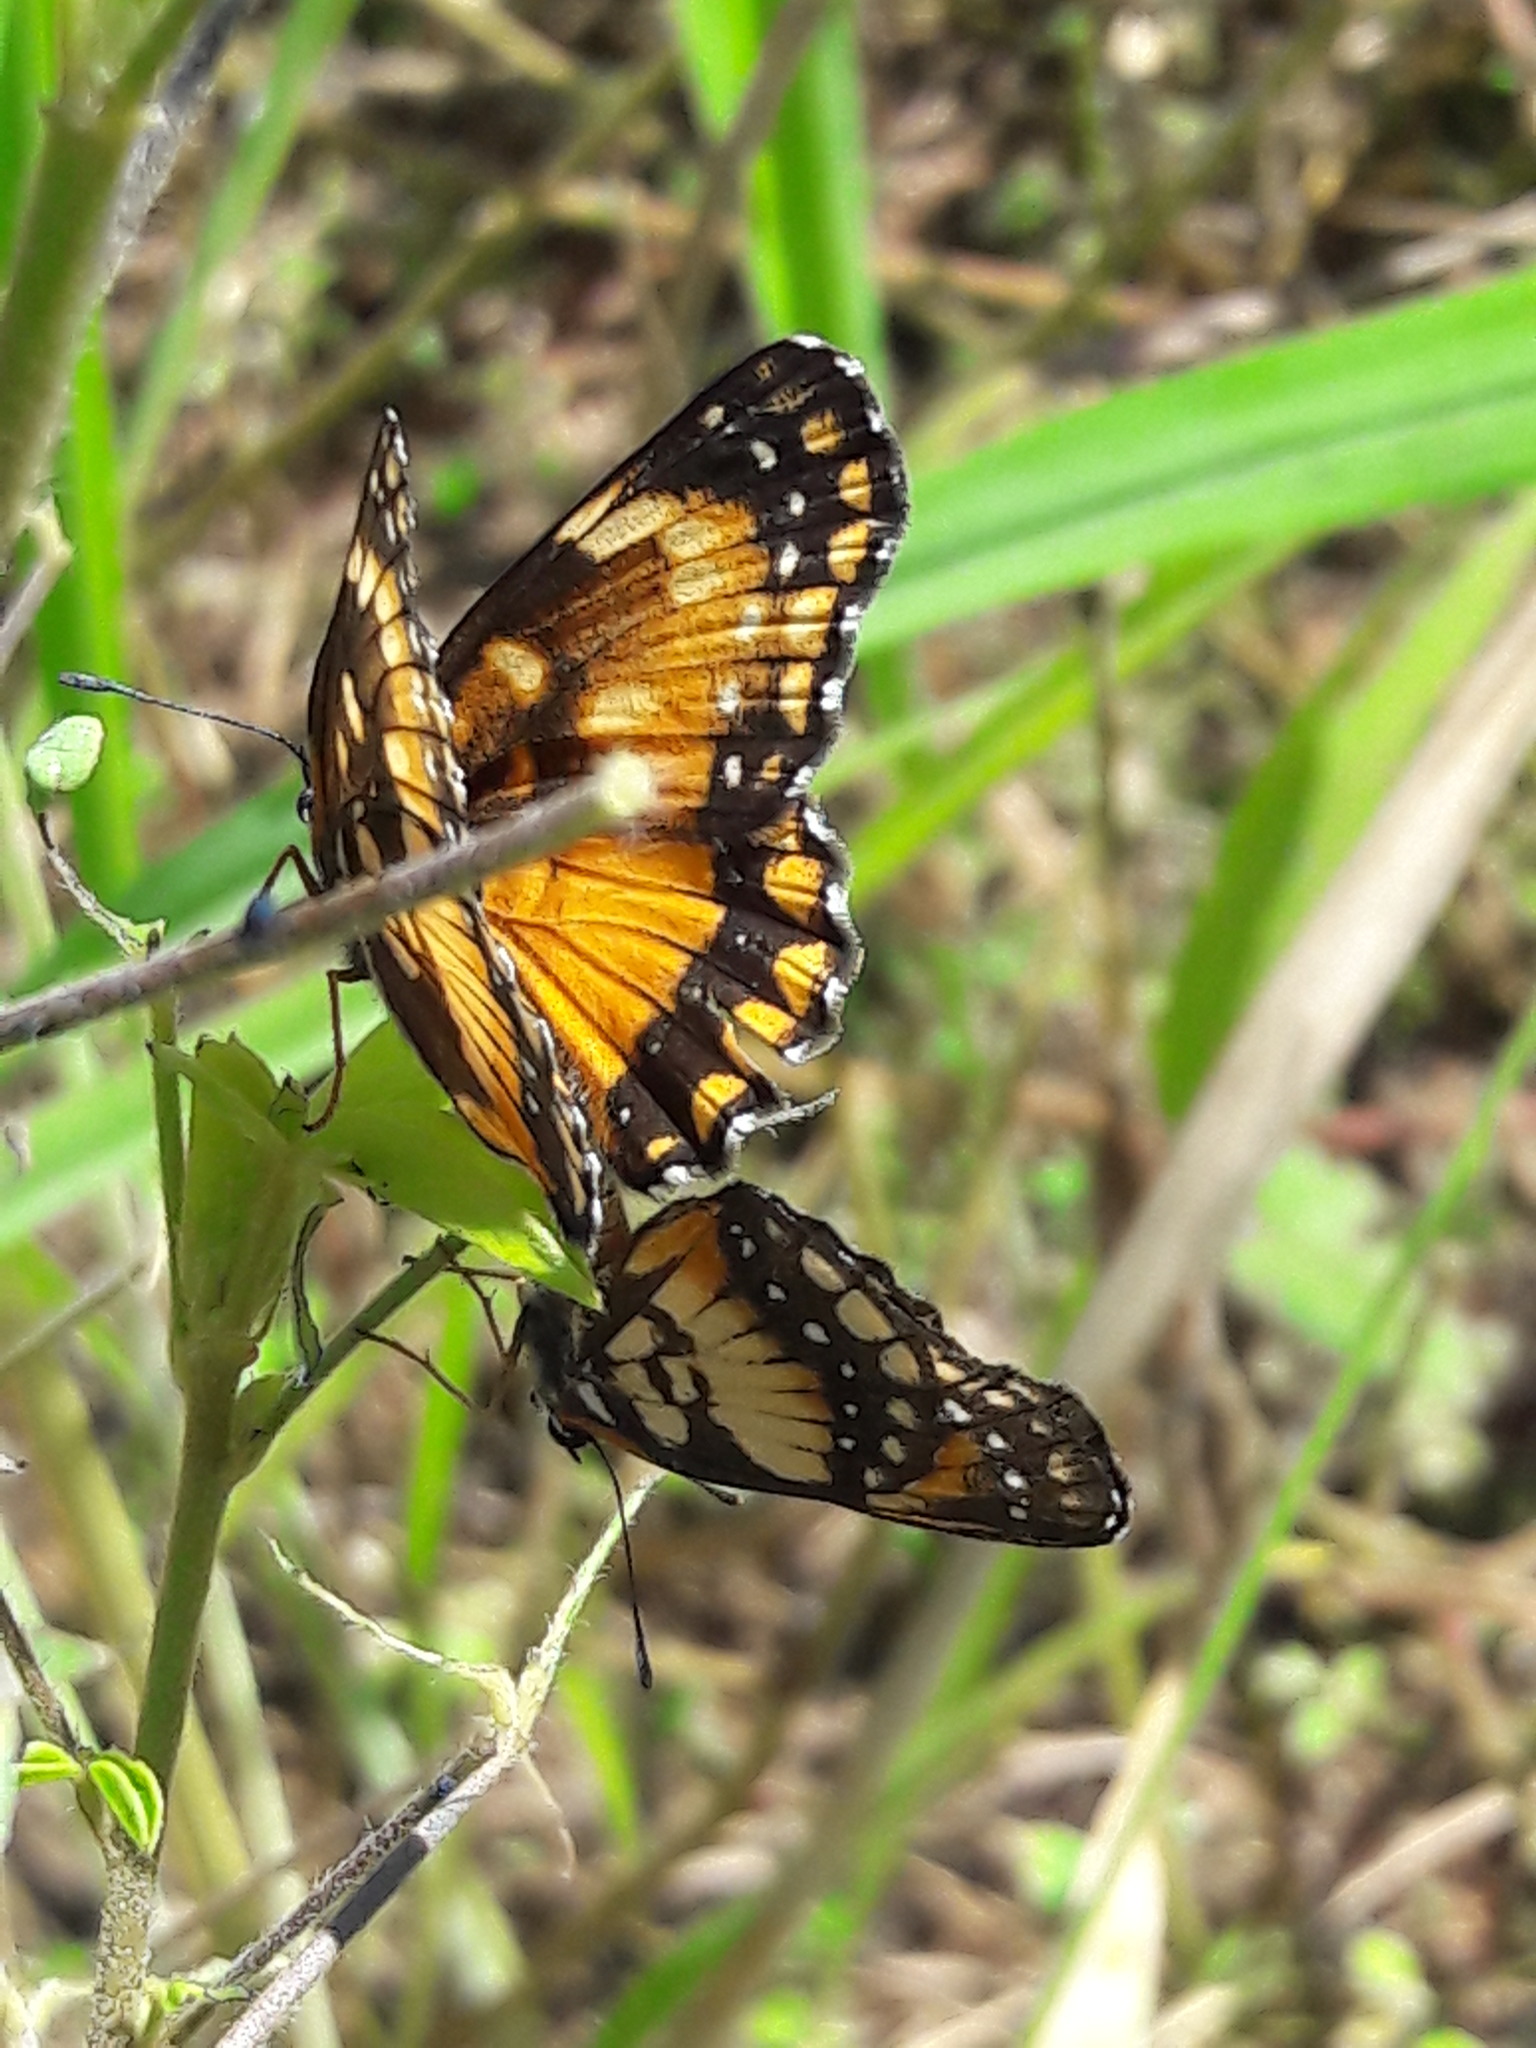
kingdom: Animalia
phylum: Arthropoda
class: Insecta
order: Lepidoptera
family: Nymphalidae
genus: Chlosyne
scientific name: Chlosyne lacinia
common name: Bordered patch
